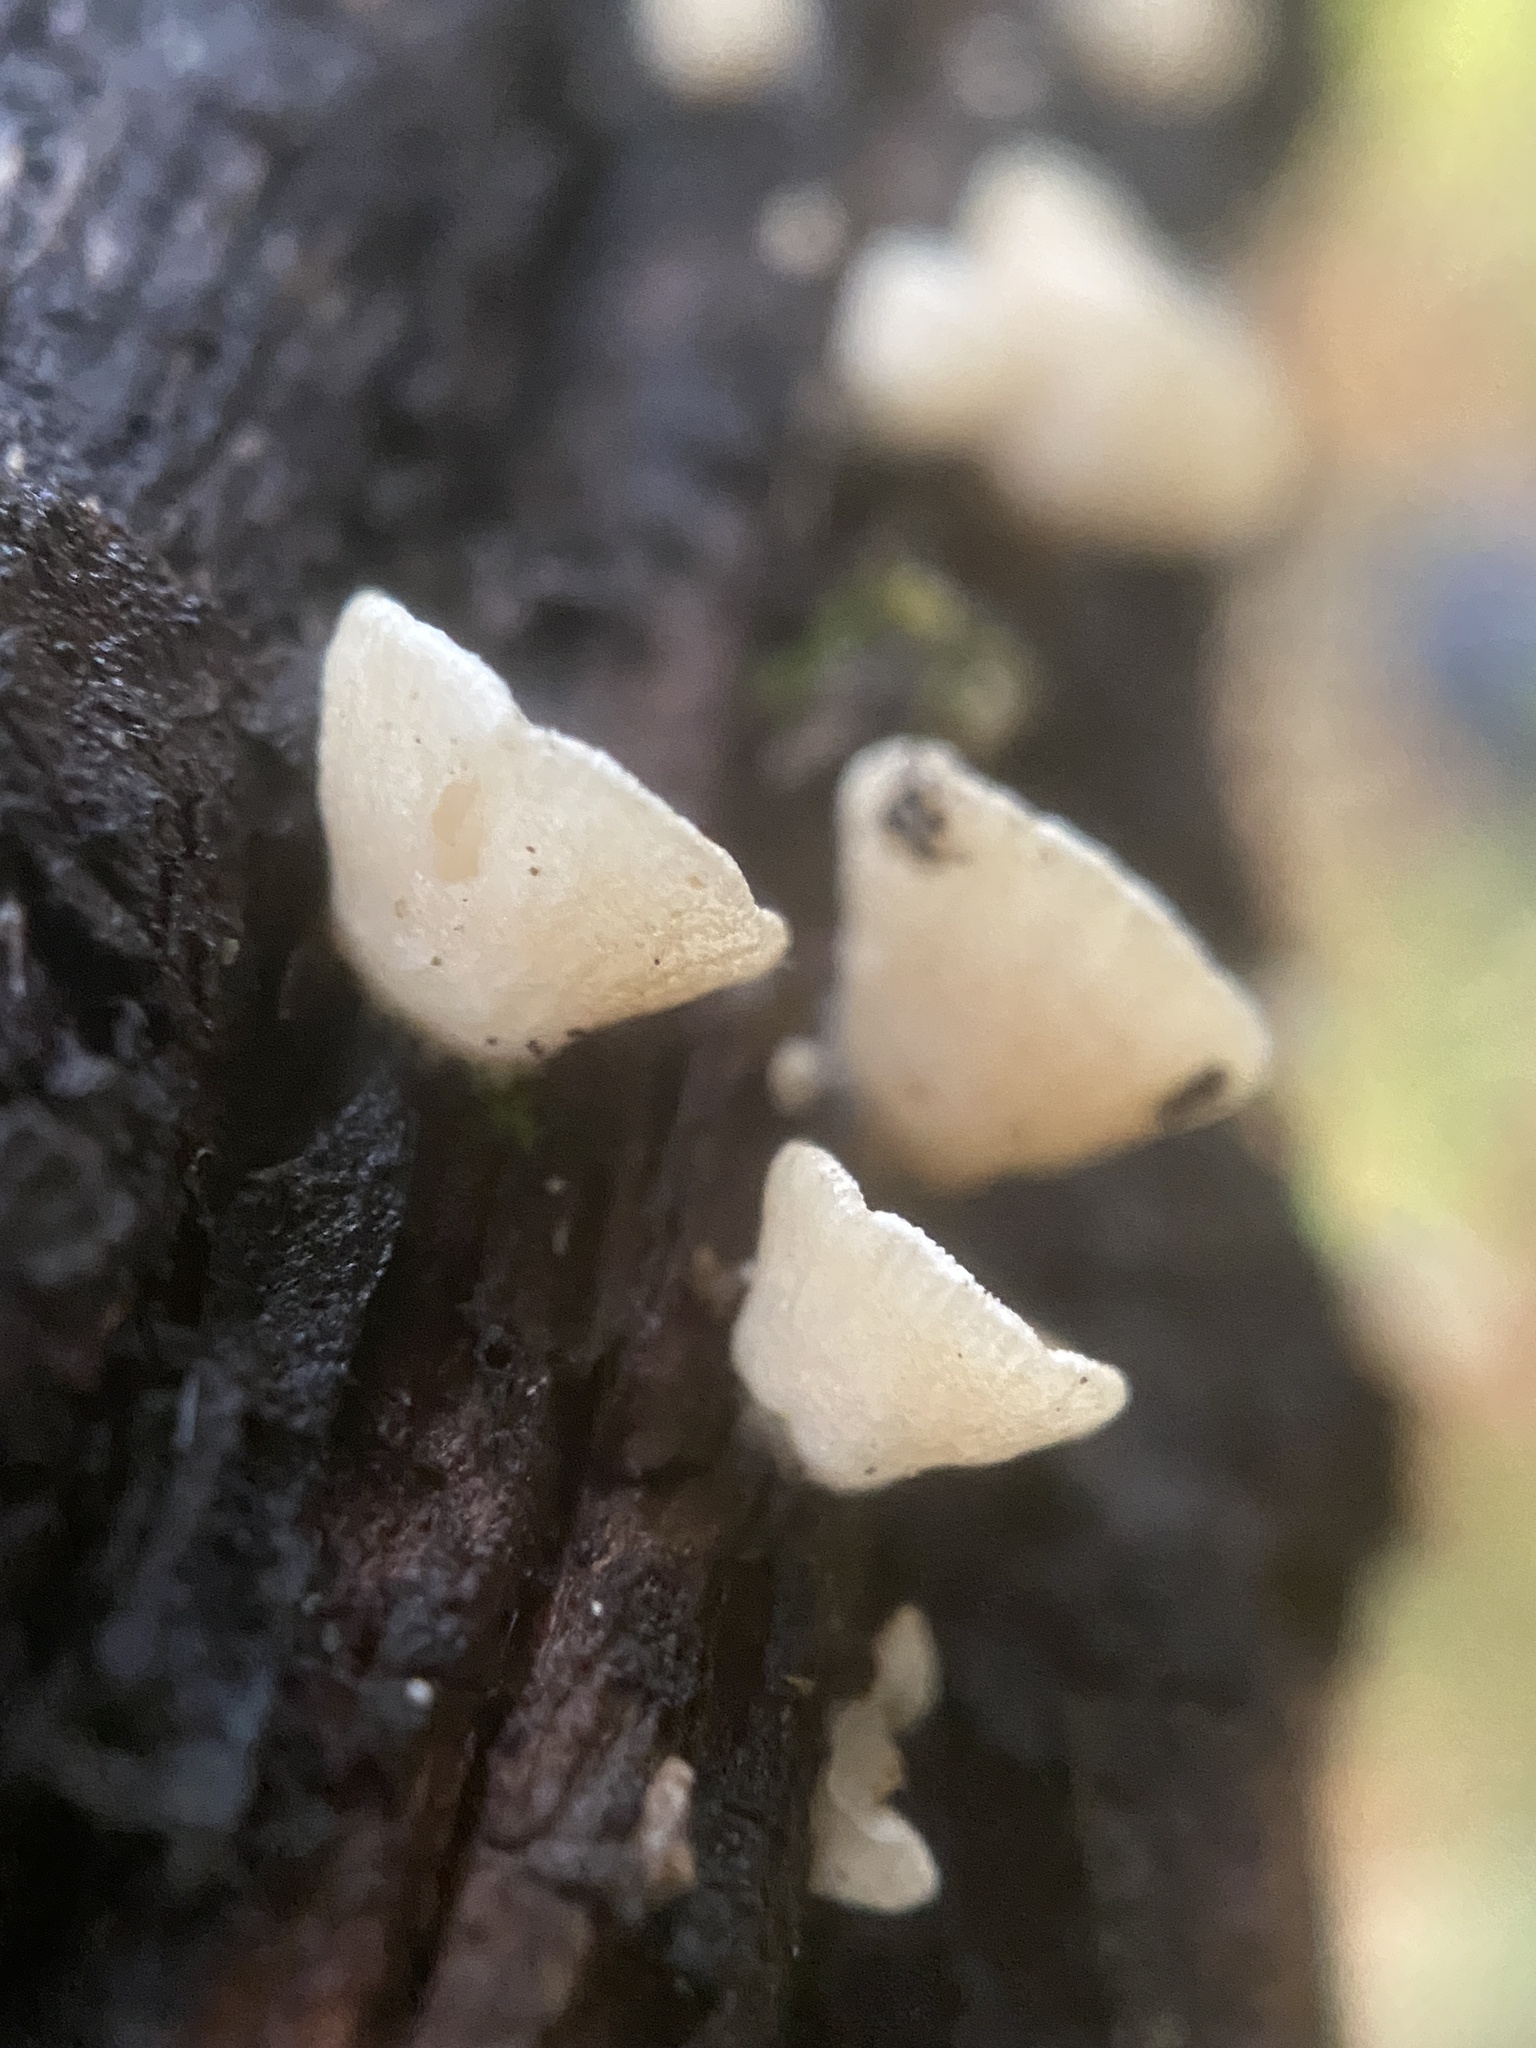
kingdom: Fungi
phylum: Basidiomycota
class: Agaricomycetes
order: Agaricales
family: Crepidotaceae
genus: Crepidotus
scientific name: Crepidotus variabilis
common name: Variable oysterling
